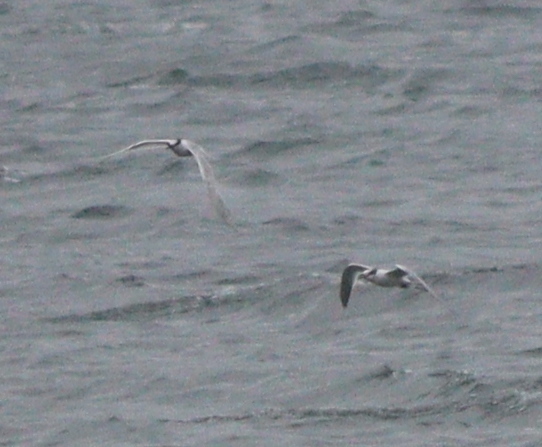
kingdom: Animalia
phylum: Chordata
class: Aves
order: Charadriiformes
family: Laridae
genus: Thalasseus
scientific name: Thalasseus sandvicensis
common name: Sandwich tern
